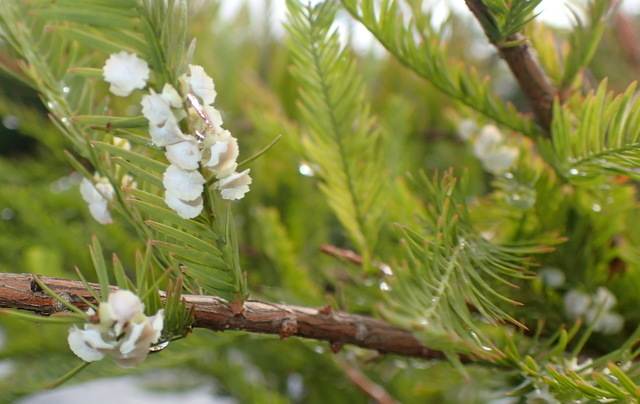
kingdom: Animalia
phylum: Arthropoda
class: Insecta
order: Diptera
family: Cecidomyiidae
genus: Taxodiomyia
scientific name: Taxodiomyia cupressi
